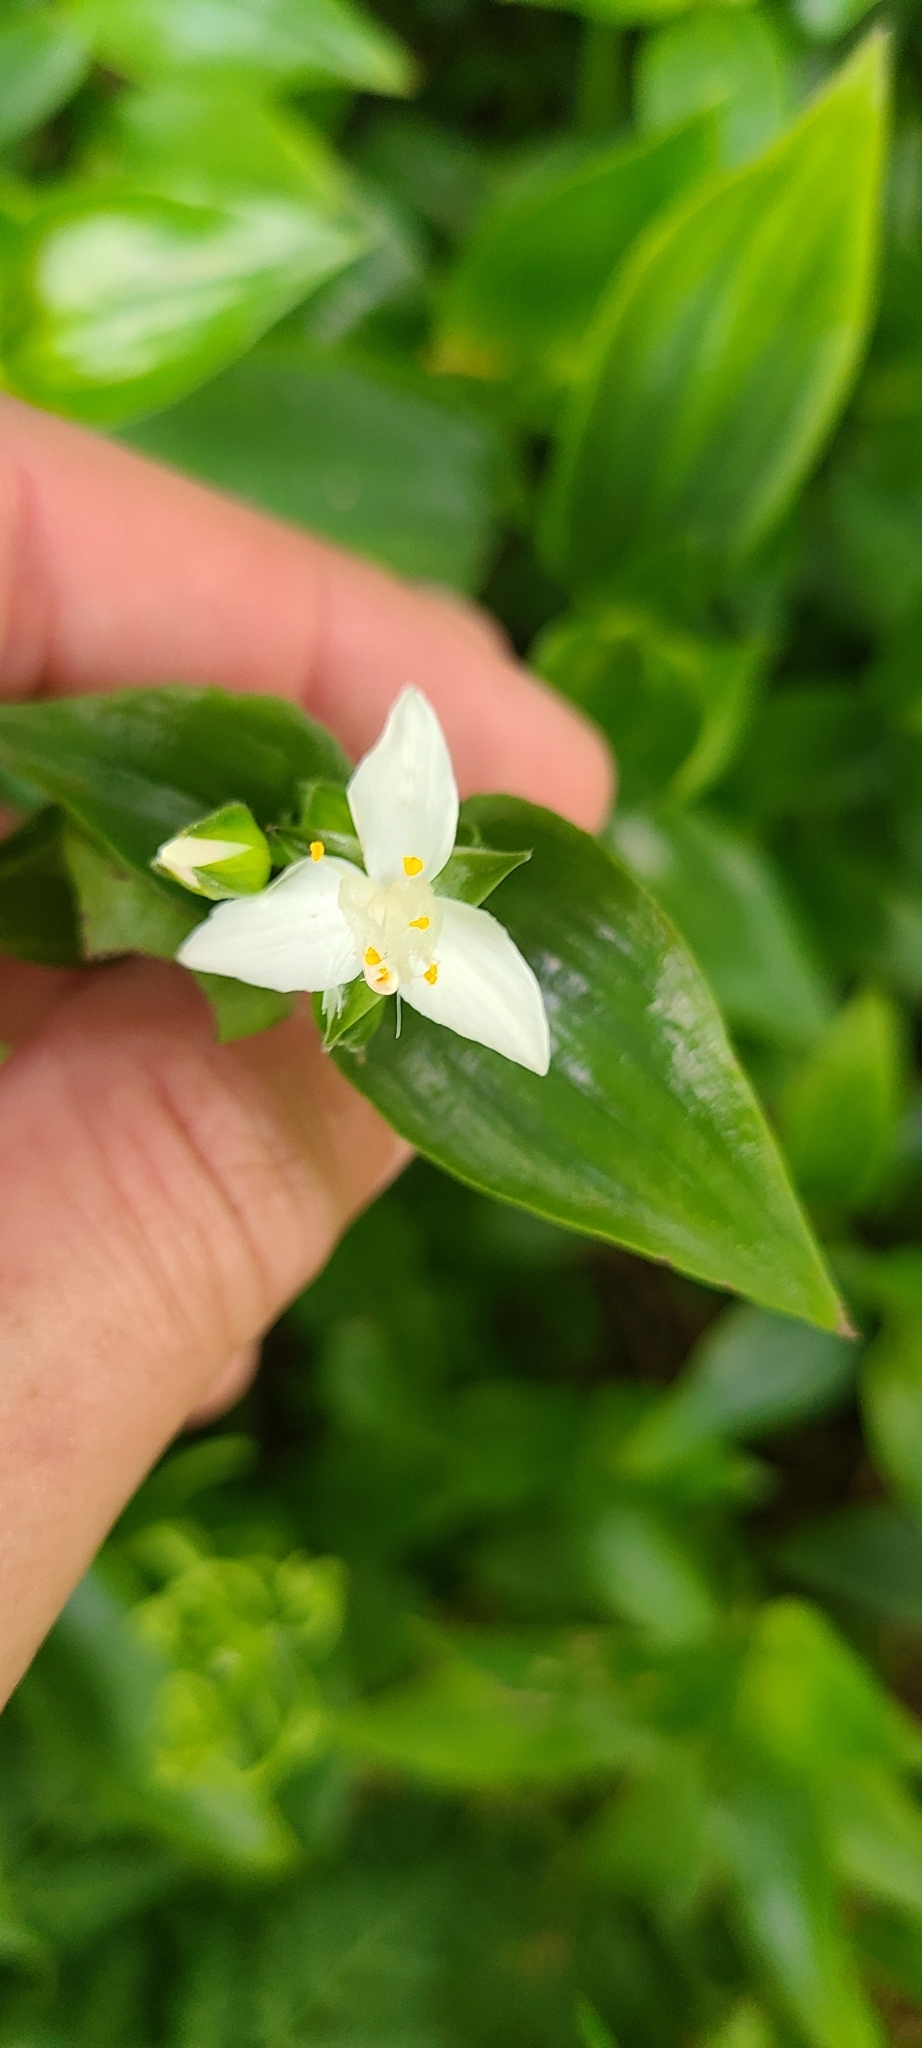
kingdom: Plantae
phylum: Tracheophyta
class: Liliopsida
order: Commelinales
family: Commelinaceae
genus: Tradescantia
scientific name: Tradescantia fluminensis
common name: Wandering-jew
